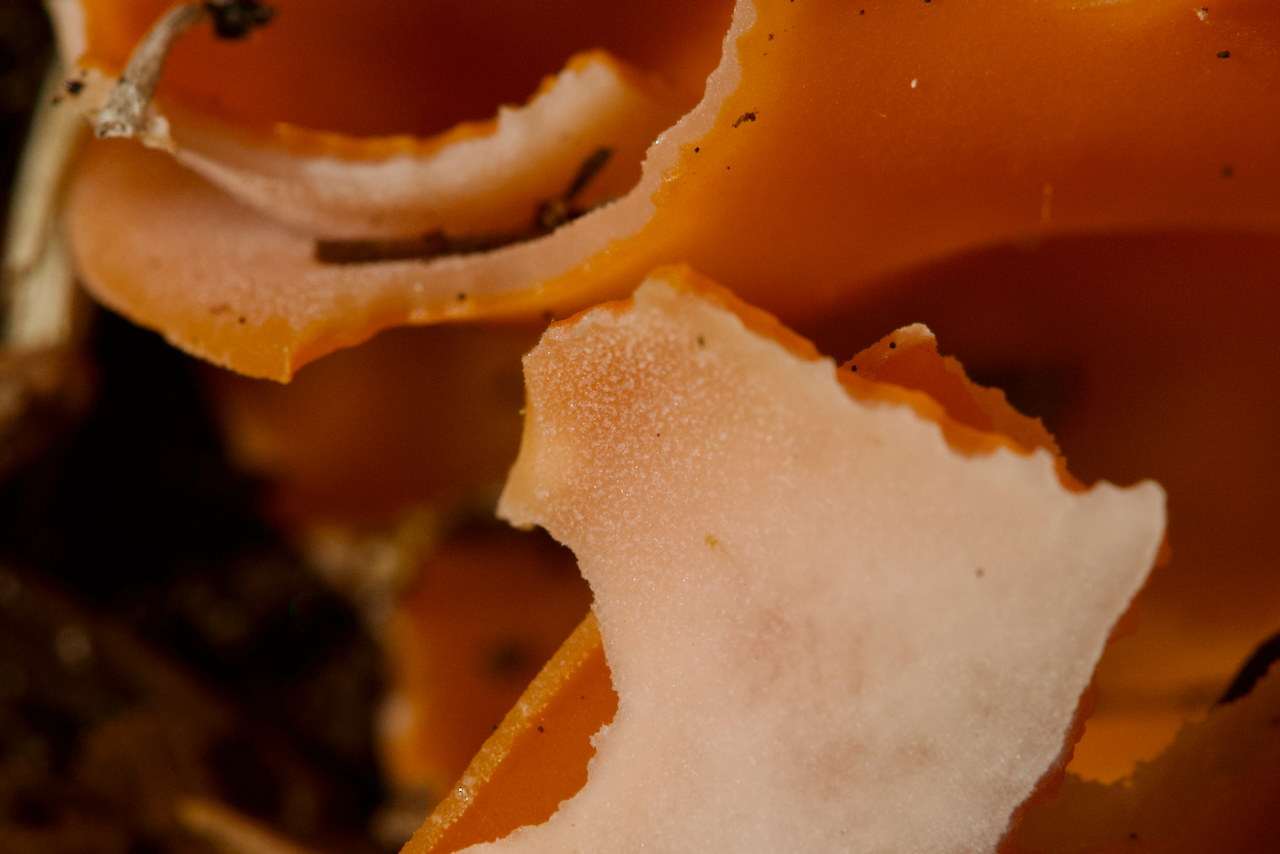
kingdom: Fungi
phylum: Ascomycota
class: Pezizomycetes
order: Pezizales
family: Pyronemataceae
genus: Aleuria
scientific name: Aleuria aurantia
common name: Orange peel fungus
